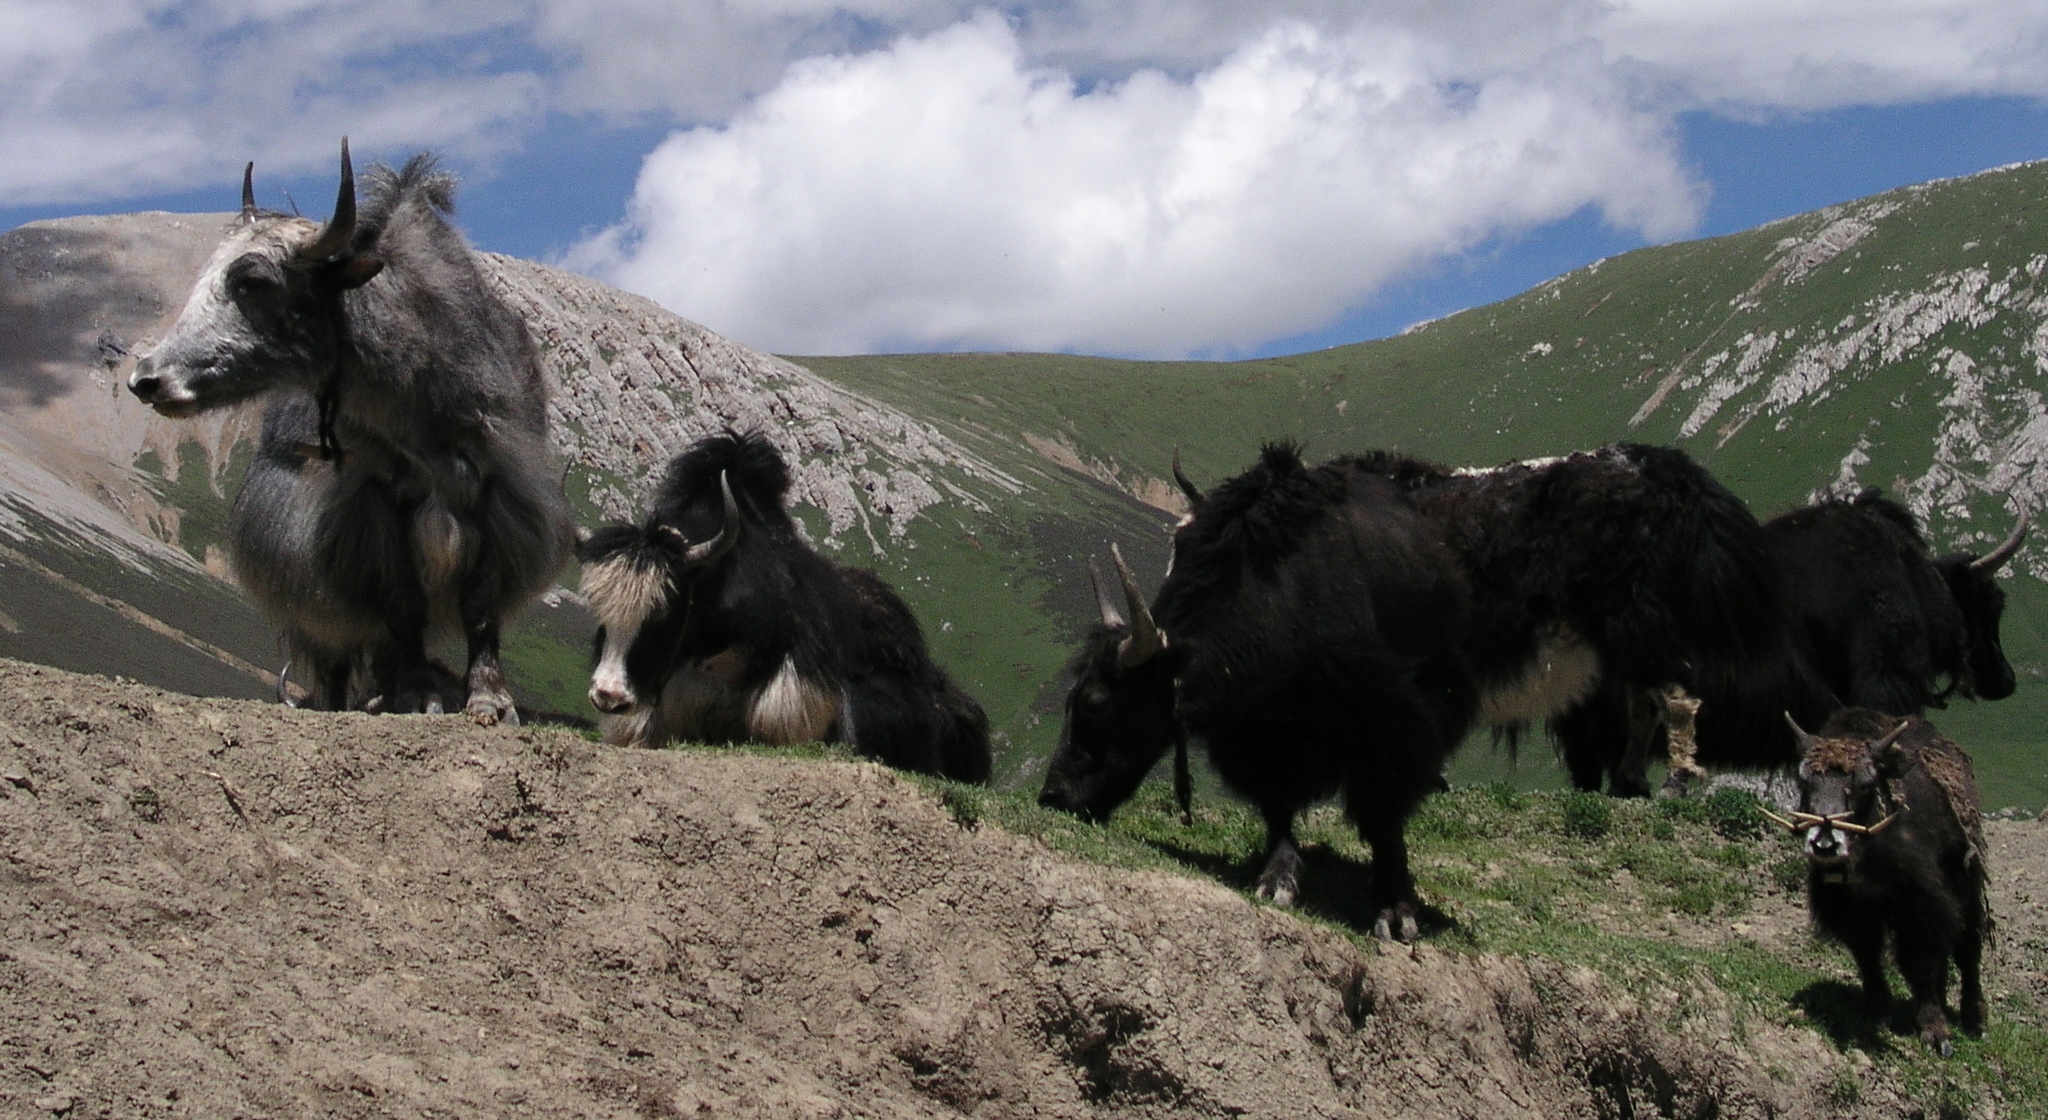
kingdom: Animalia
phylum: Chordata
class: Mammalia
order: Artiodactyla
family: Bovidae
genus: Bos
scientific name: Bos grunniens
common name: Yak
